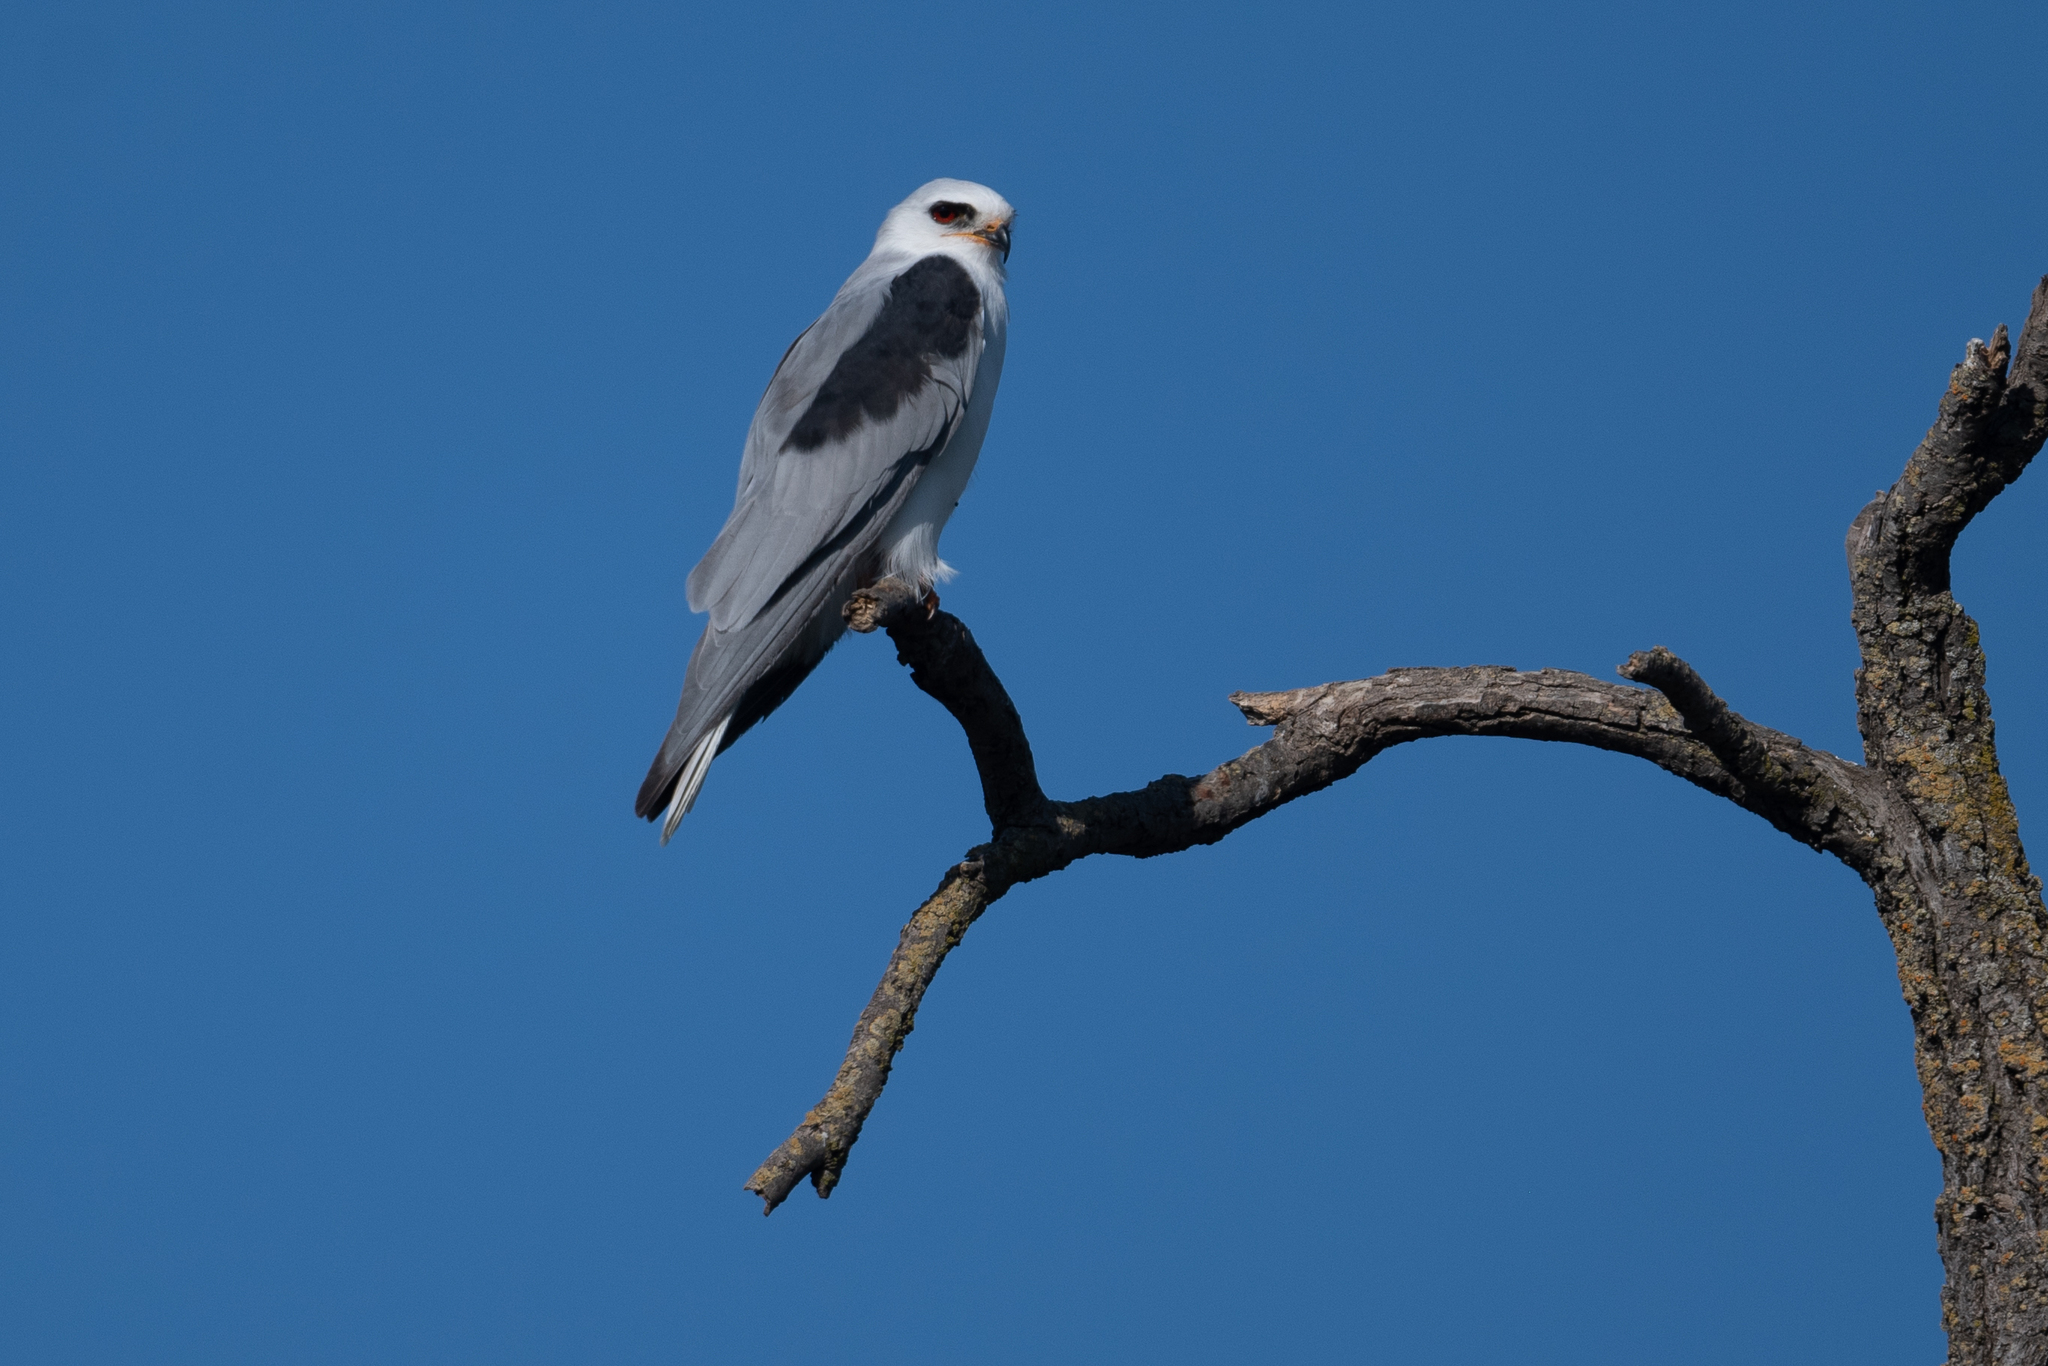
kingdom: Animalia
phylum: Chordata
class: Aves
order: Accipitriformes
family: Accipitridae
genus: Elanus
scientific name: Elanus leucurus
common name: White-tailed kite
